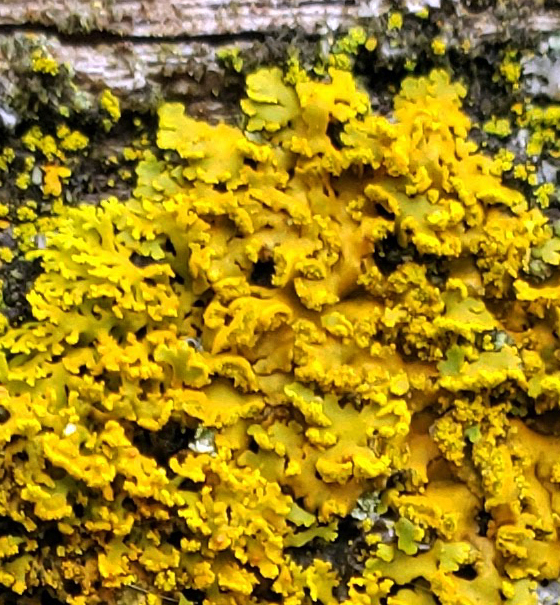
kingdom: Fungi
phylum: Ascomycota
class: Lecanoromycetes
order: Teloschistales
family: Teloschistaceae
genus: Oxneria
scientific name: Oxneria fallax
